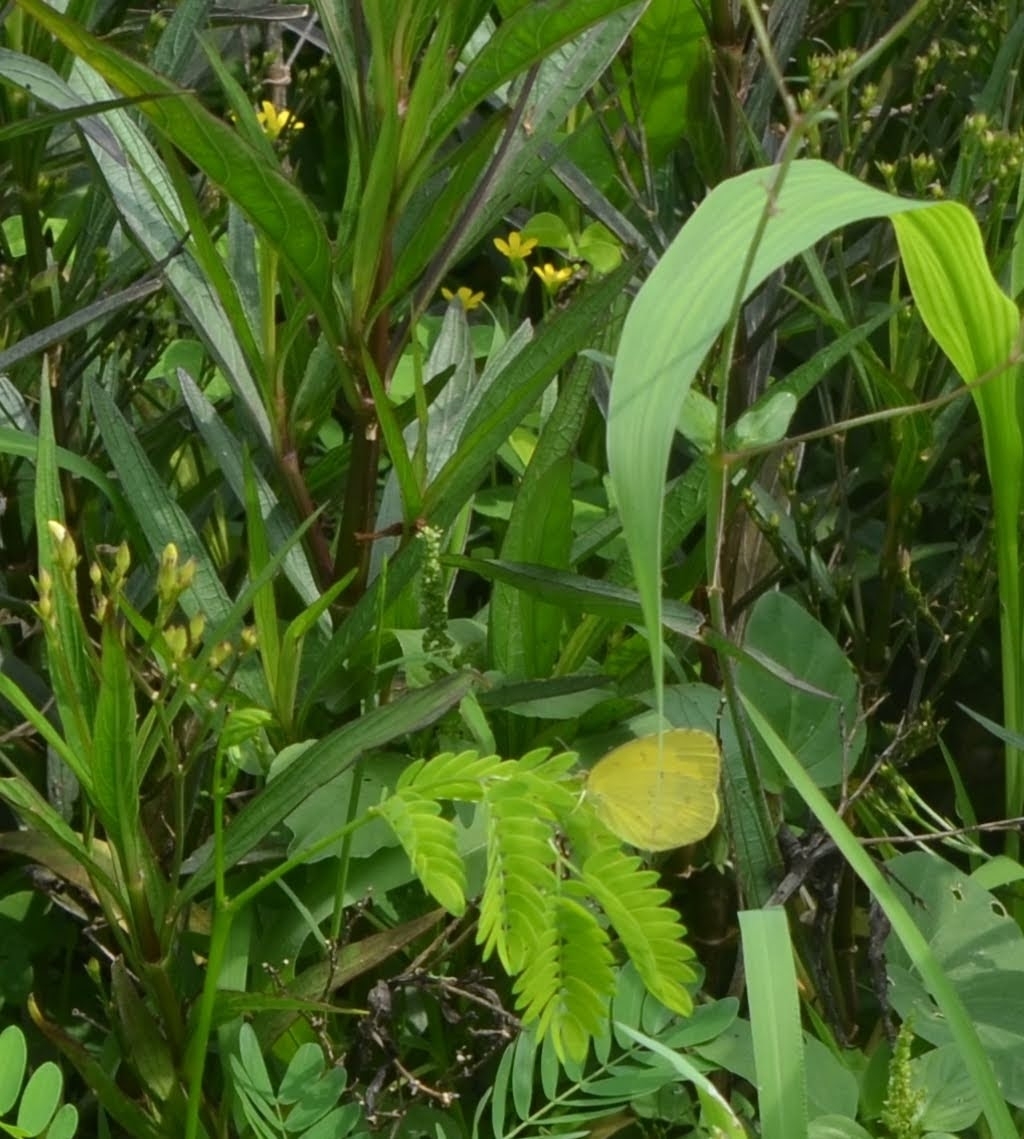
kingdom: Animalia
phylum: Arthropoda
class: Insecta
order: Lepidoptera
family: Pieridae
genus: Eurema
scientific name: Eurema hecabe
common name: Pale grass yellow
